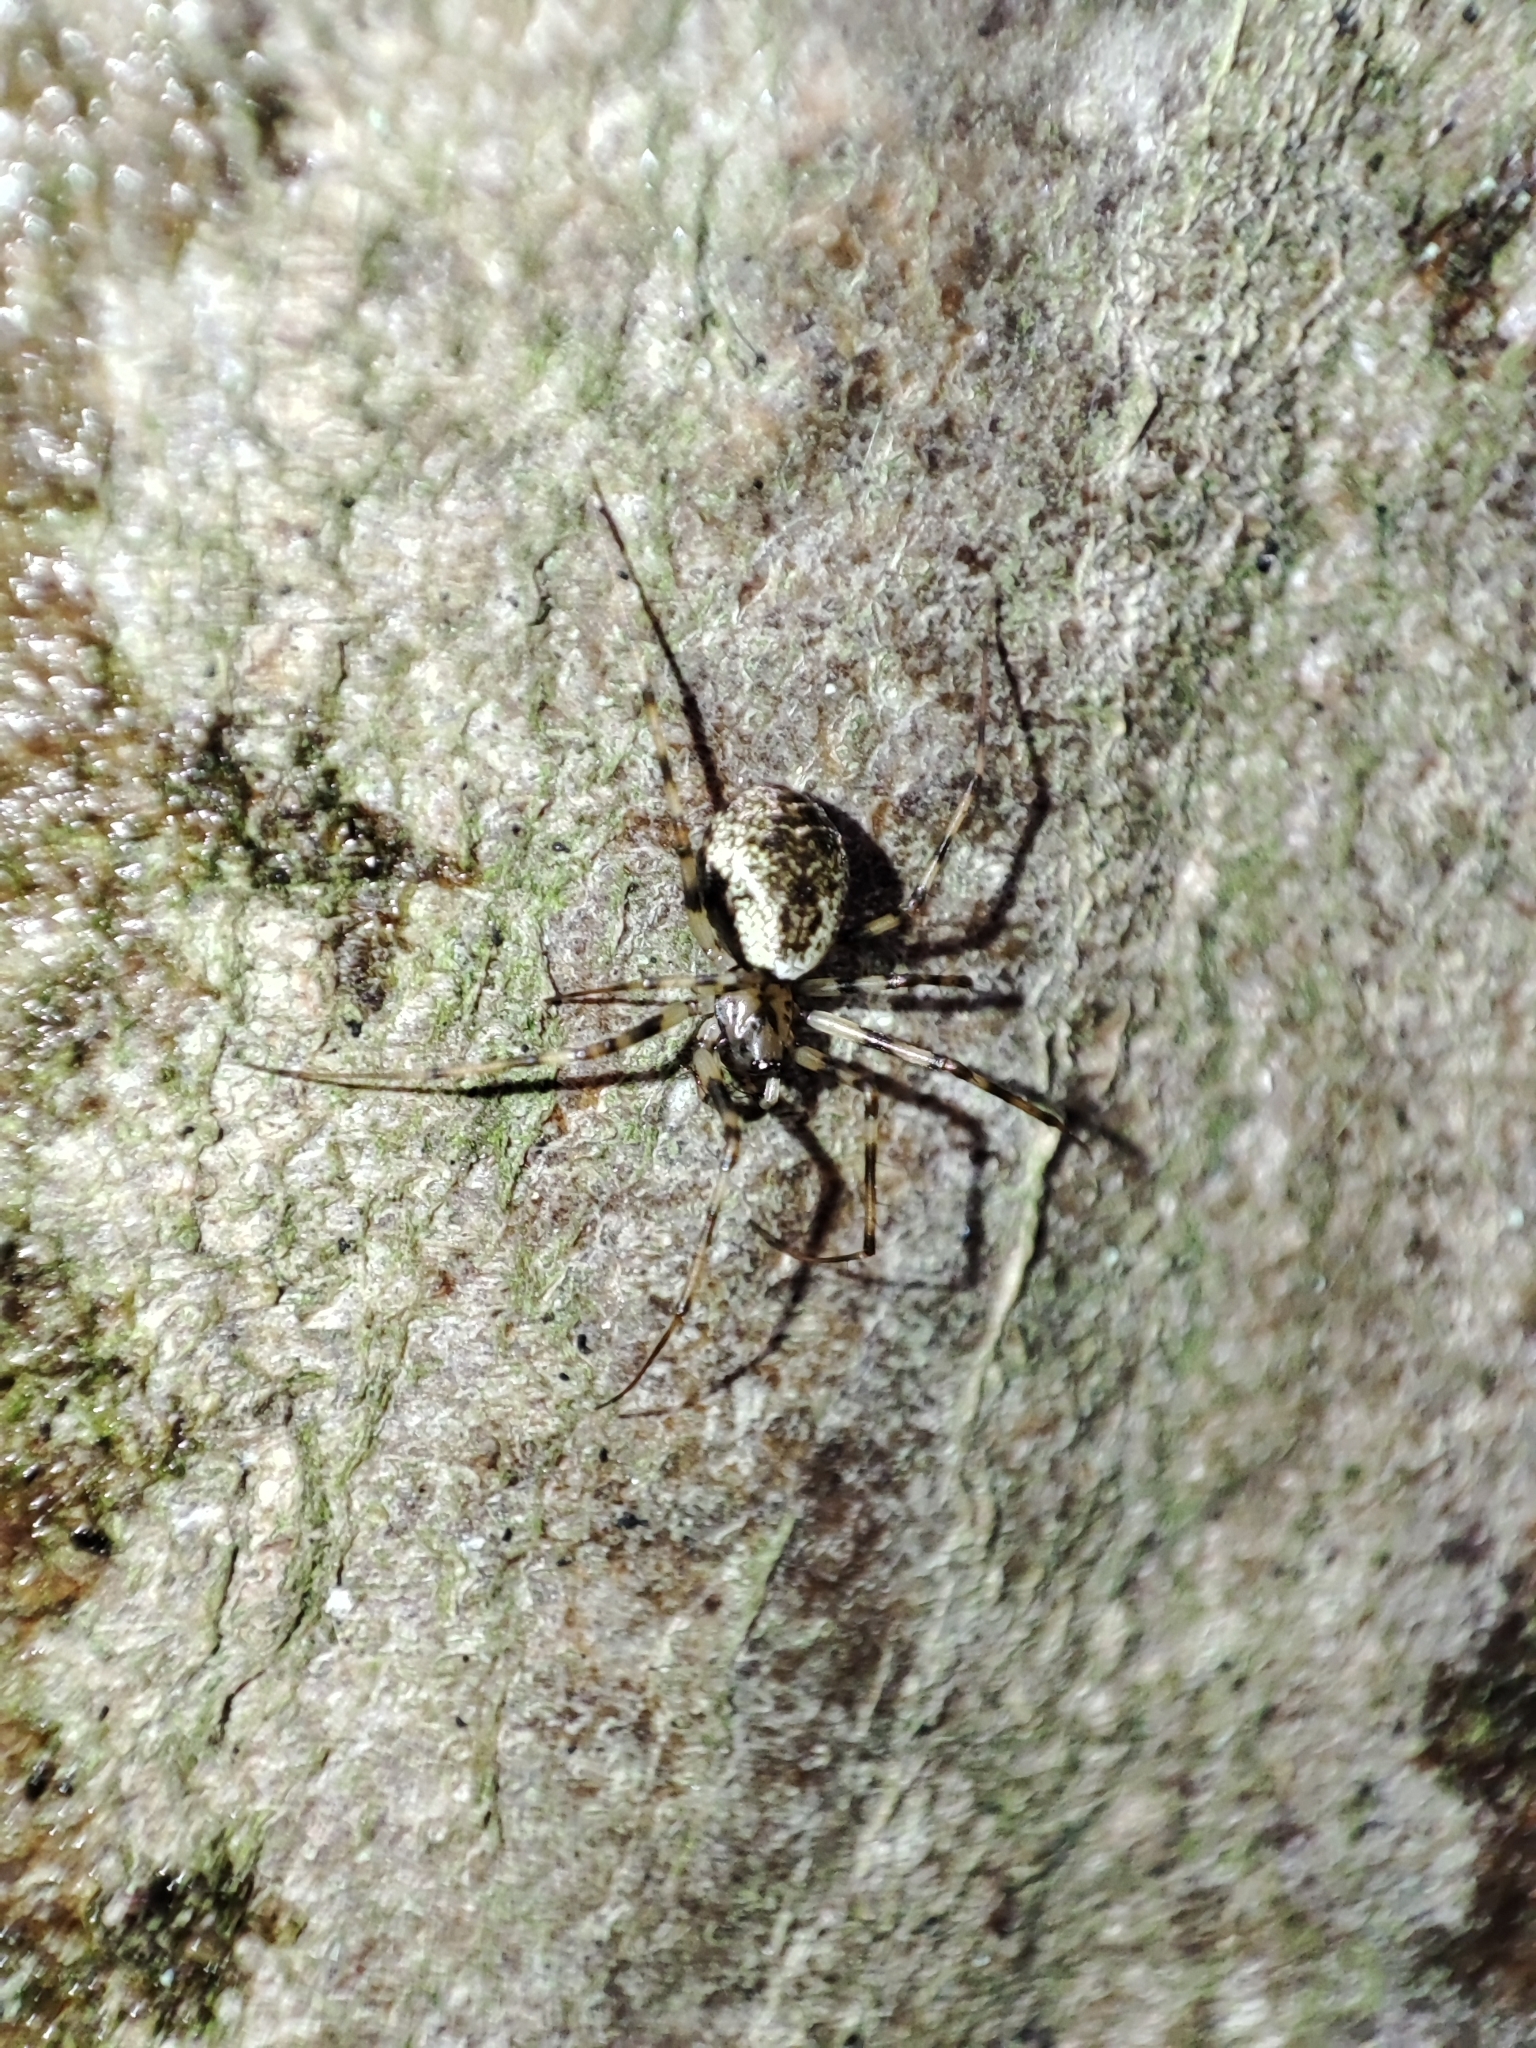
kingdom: Animalia
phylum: Arthropoda
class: Arachnida
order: Araneae
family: Linyphiidae
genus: Drapetisca
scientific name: Drapetisca socialis
